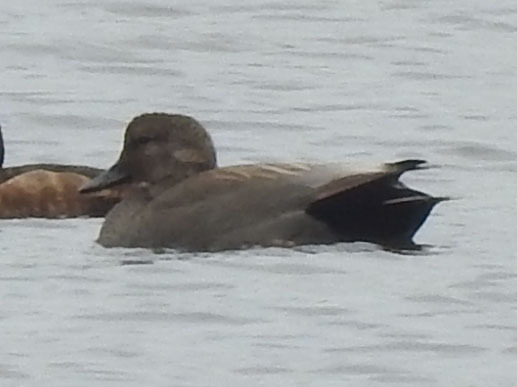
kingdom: Animalia
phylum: Chordata
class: Aves
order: Anseriformes
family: Anatidae
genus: Mareca
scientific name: Mareca strepera
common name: Gadwall
